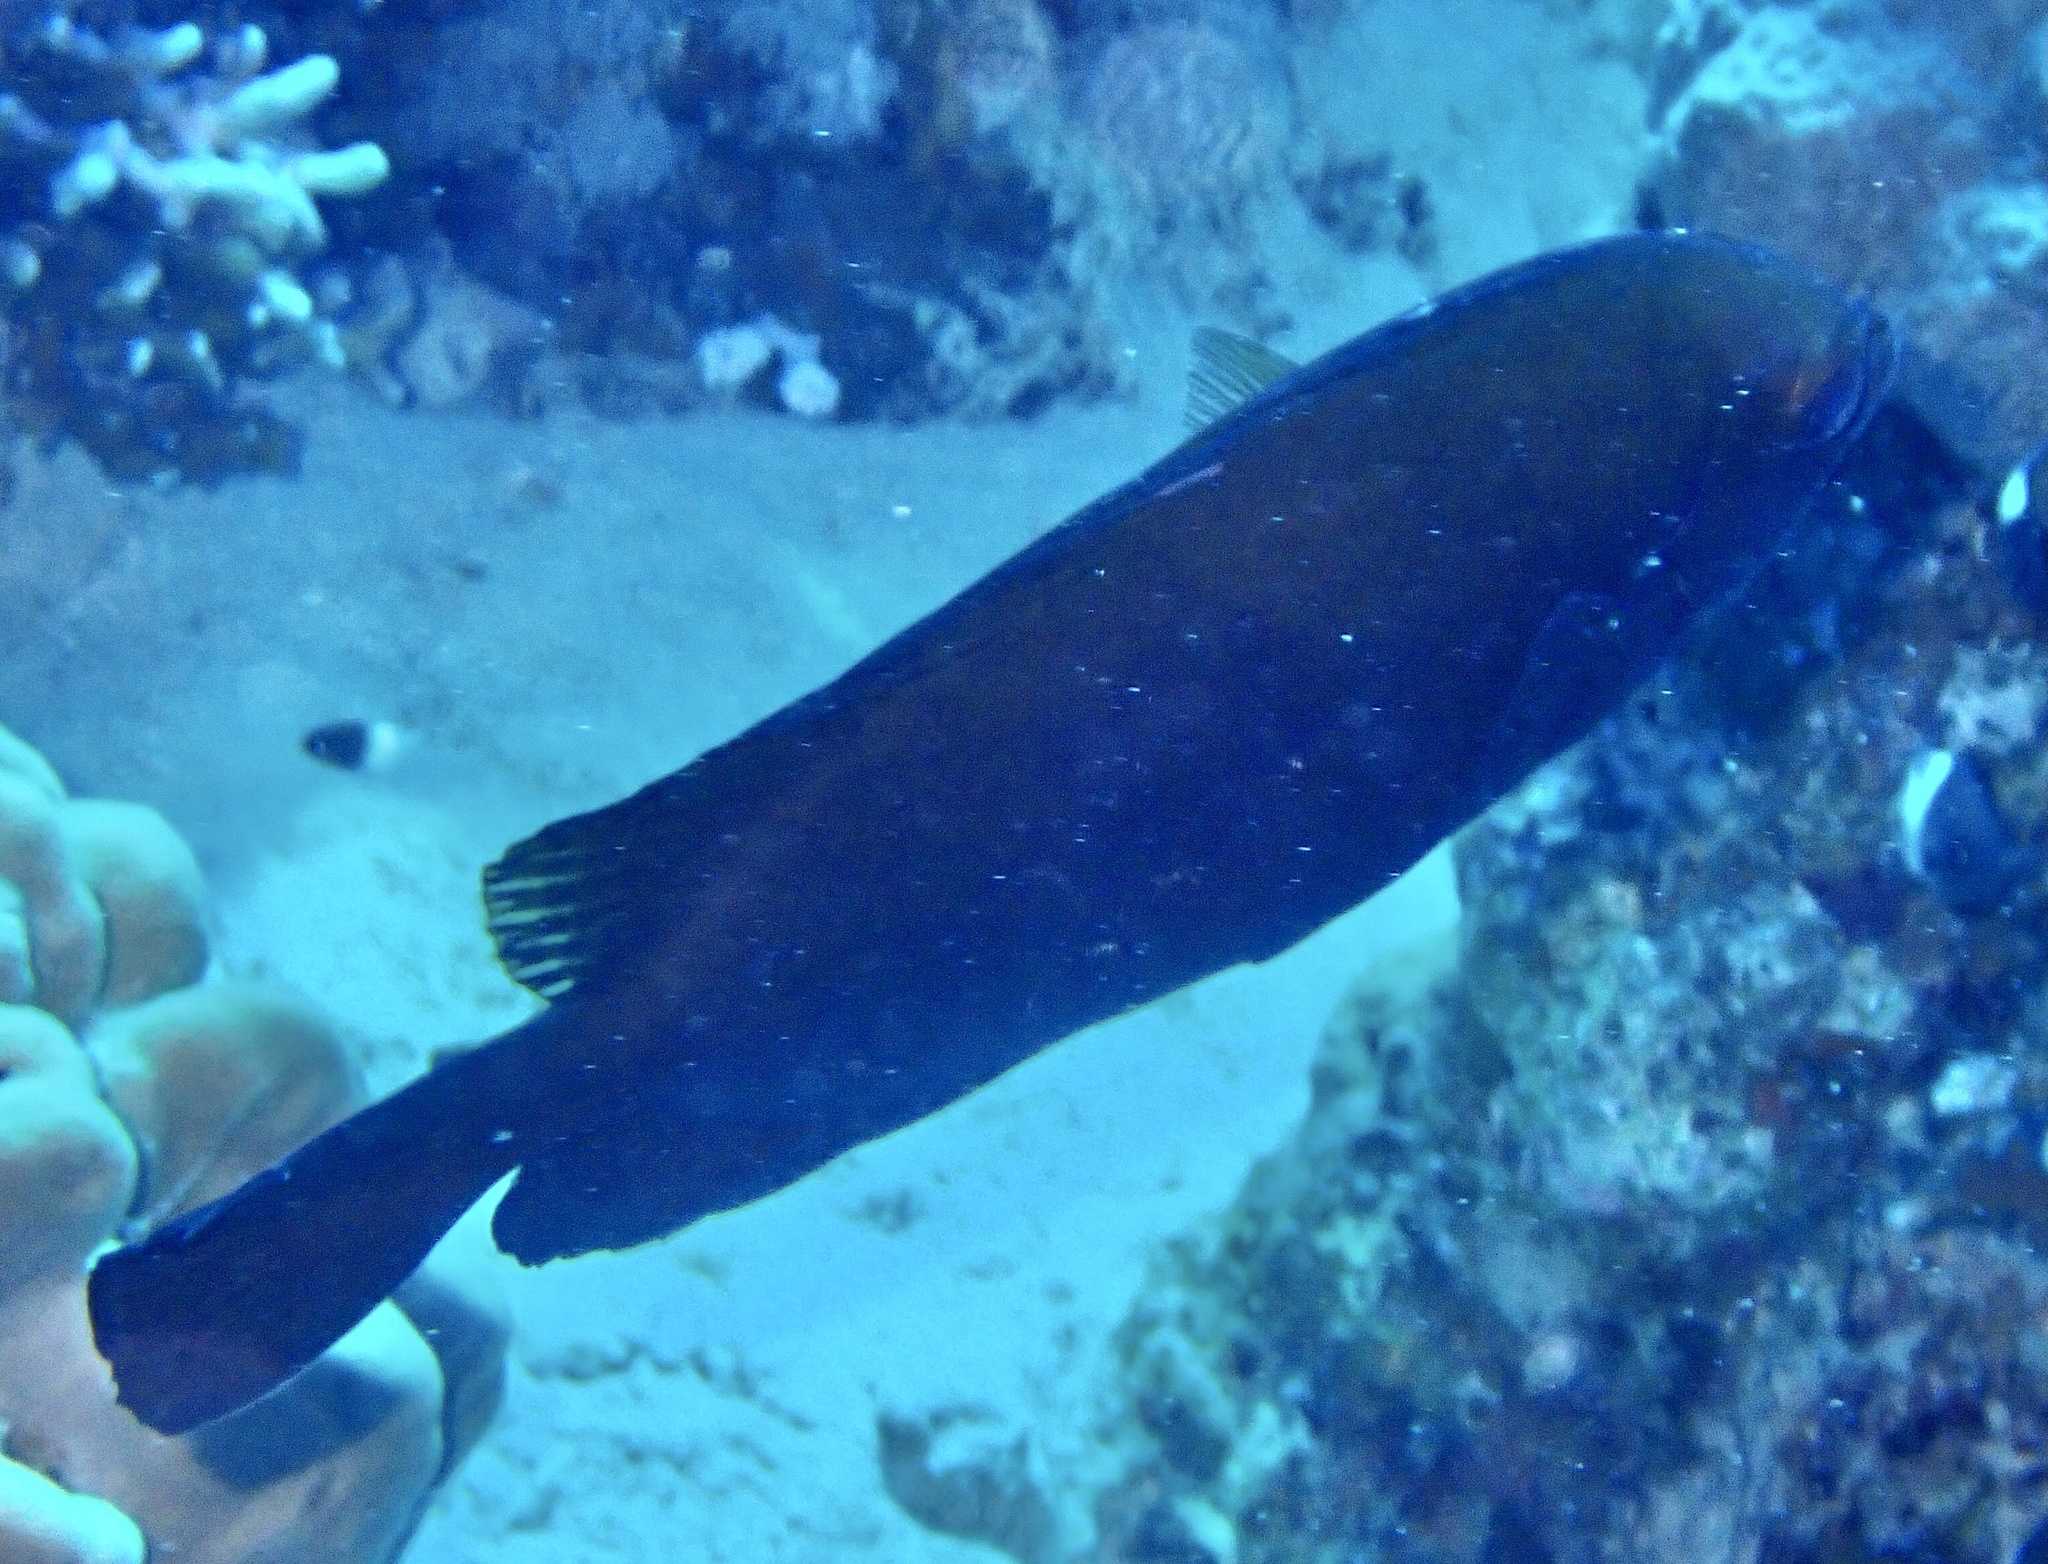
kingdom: Animalia
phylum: Chordata
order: Perciformes
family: Siganidae
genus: Siganus
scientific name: Siganus luridus
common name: Dusky spinefoot
